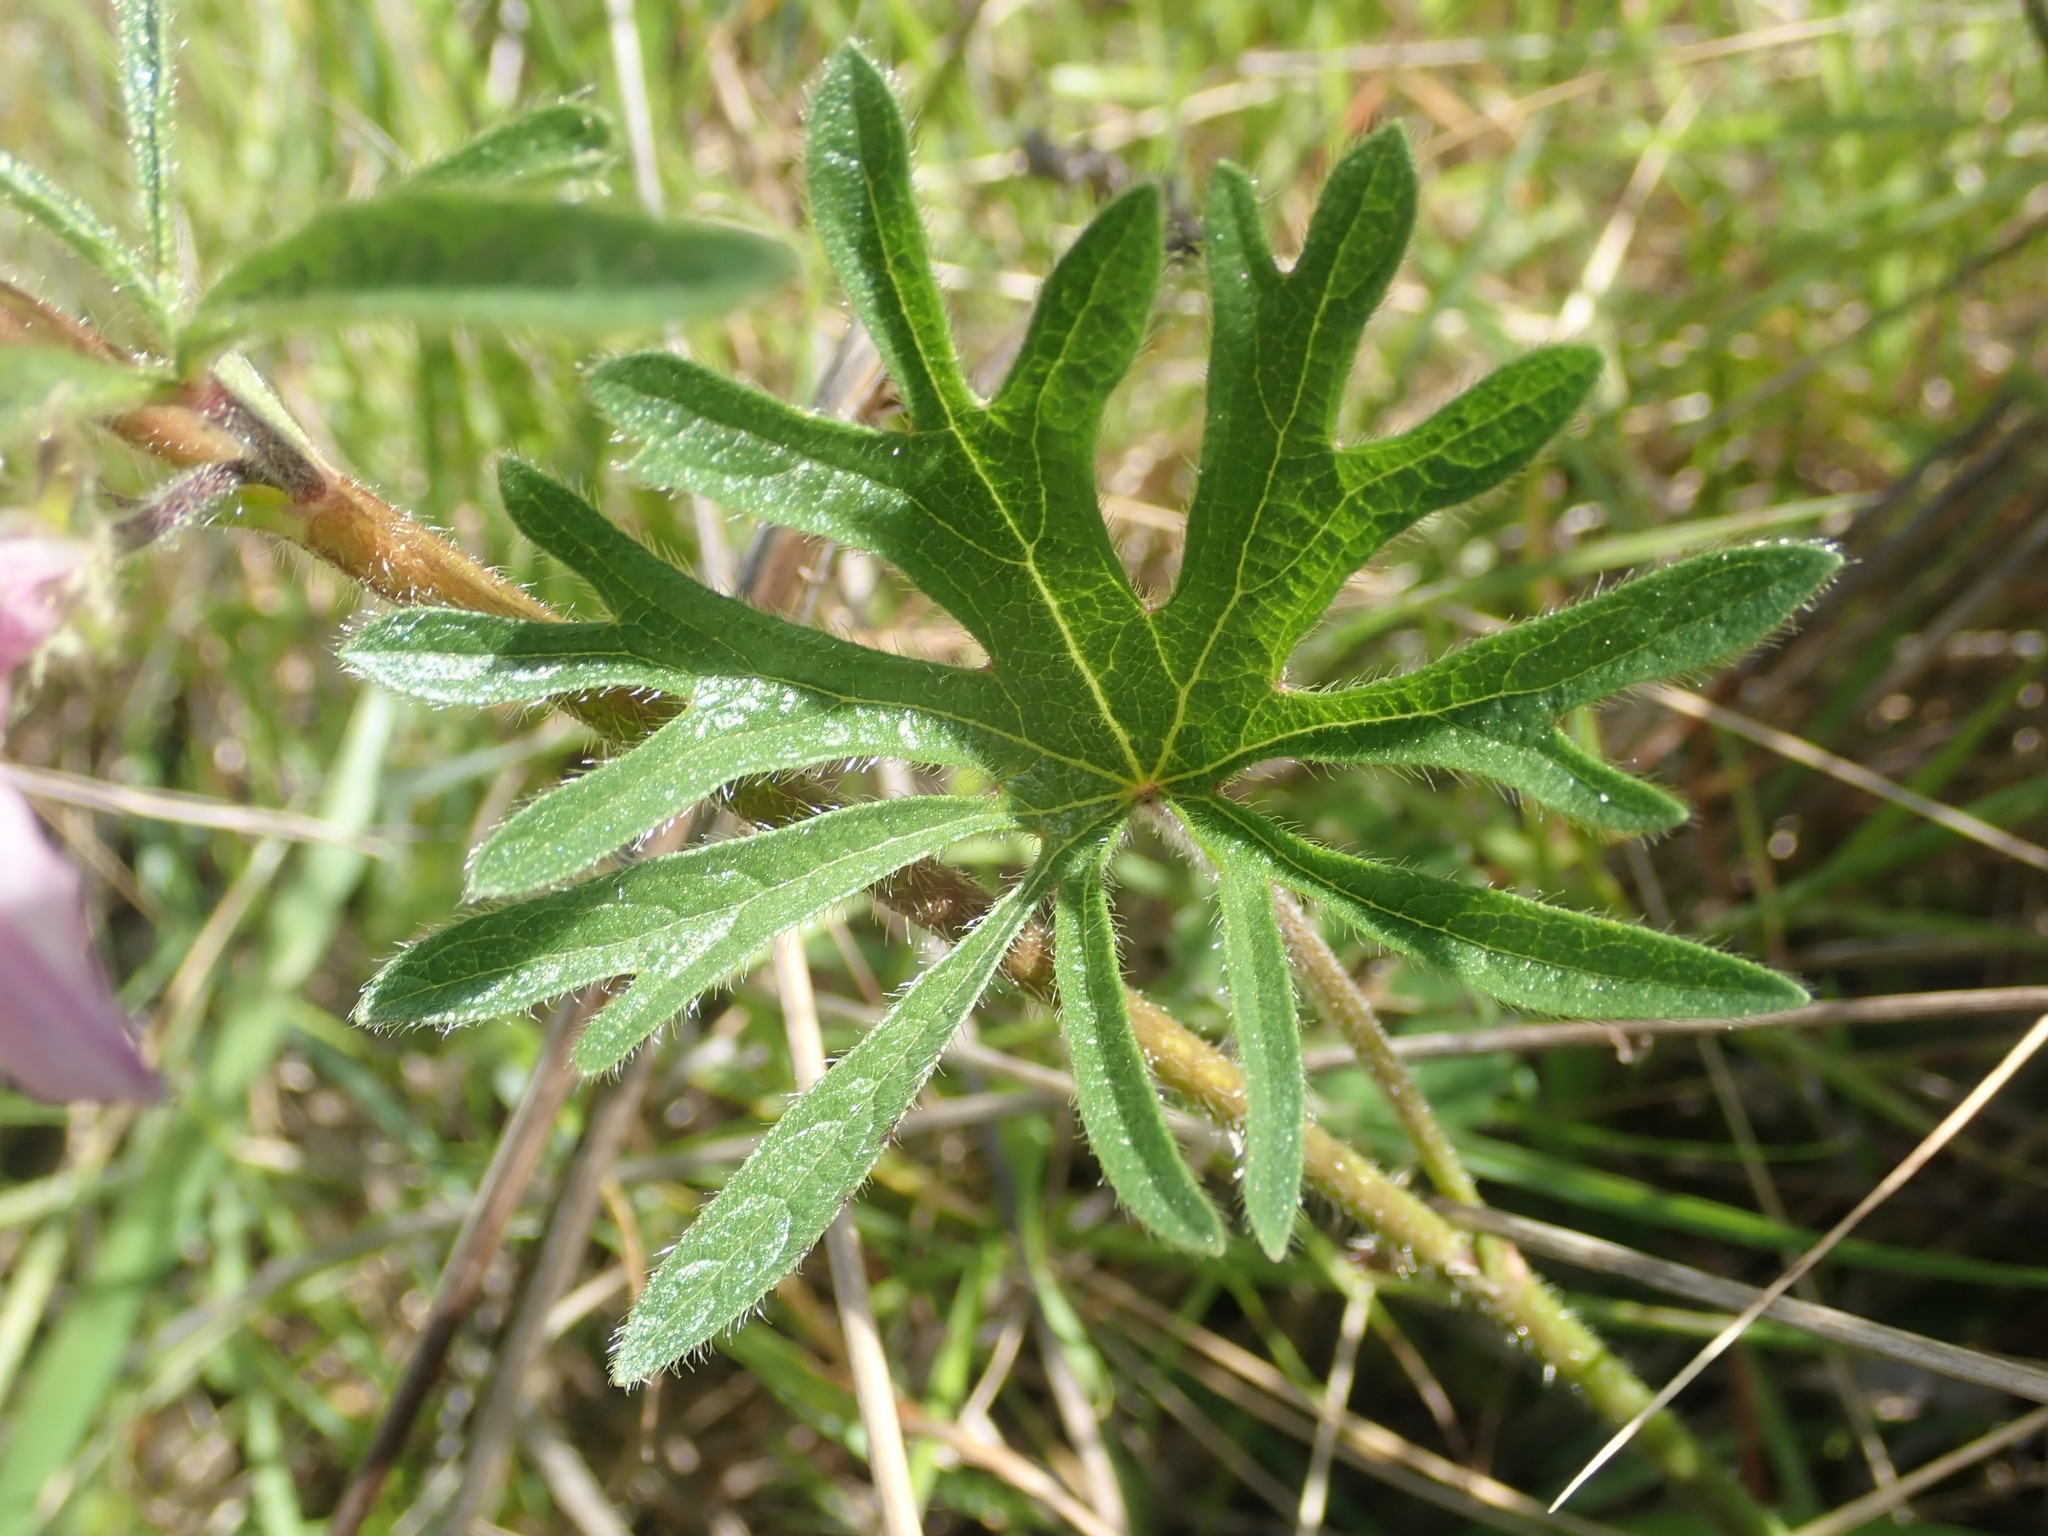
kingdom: Plantae
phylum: Tracheophyta
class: Magnoliopsida
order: Malvales
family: Malvaceae
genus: Sidalcea
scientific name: Sidalcea malviflora
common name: Greek mallow
